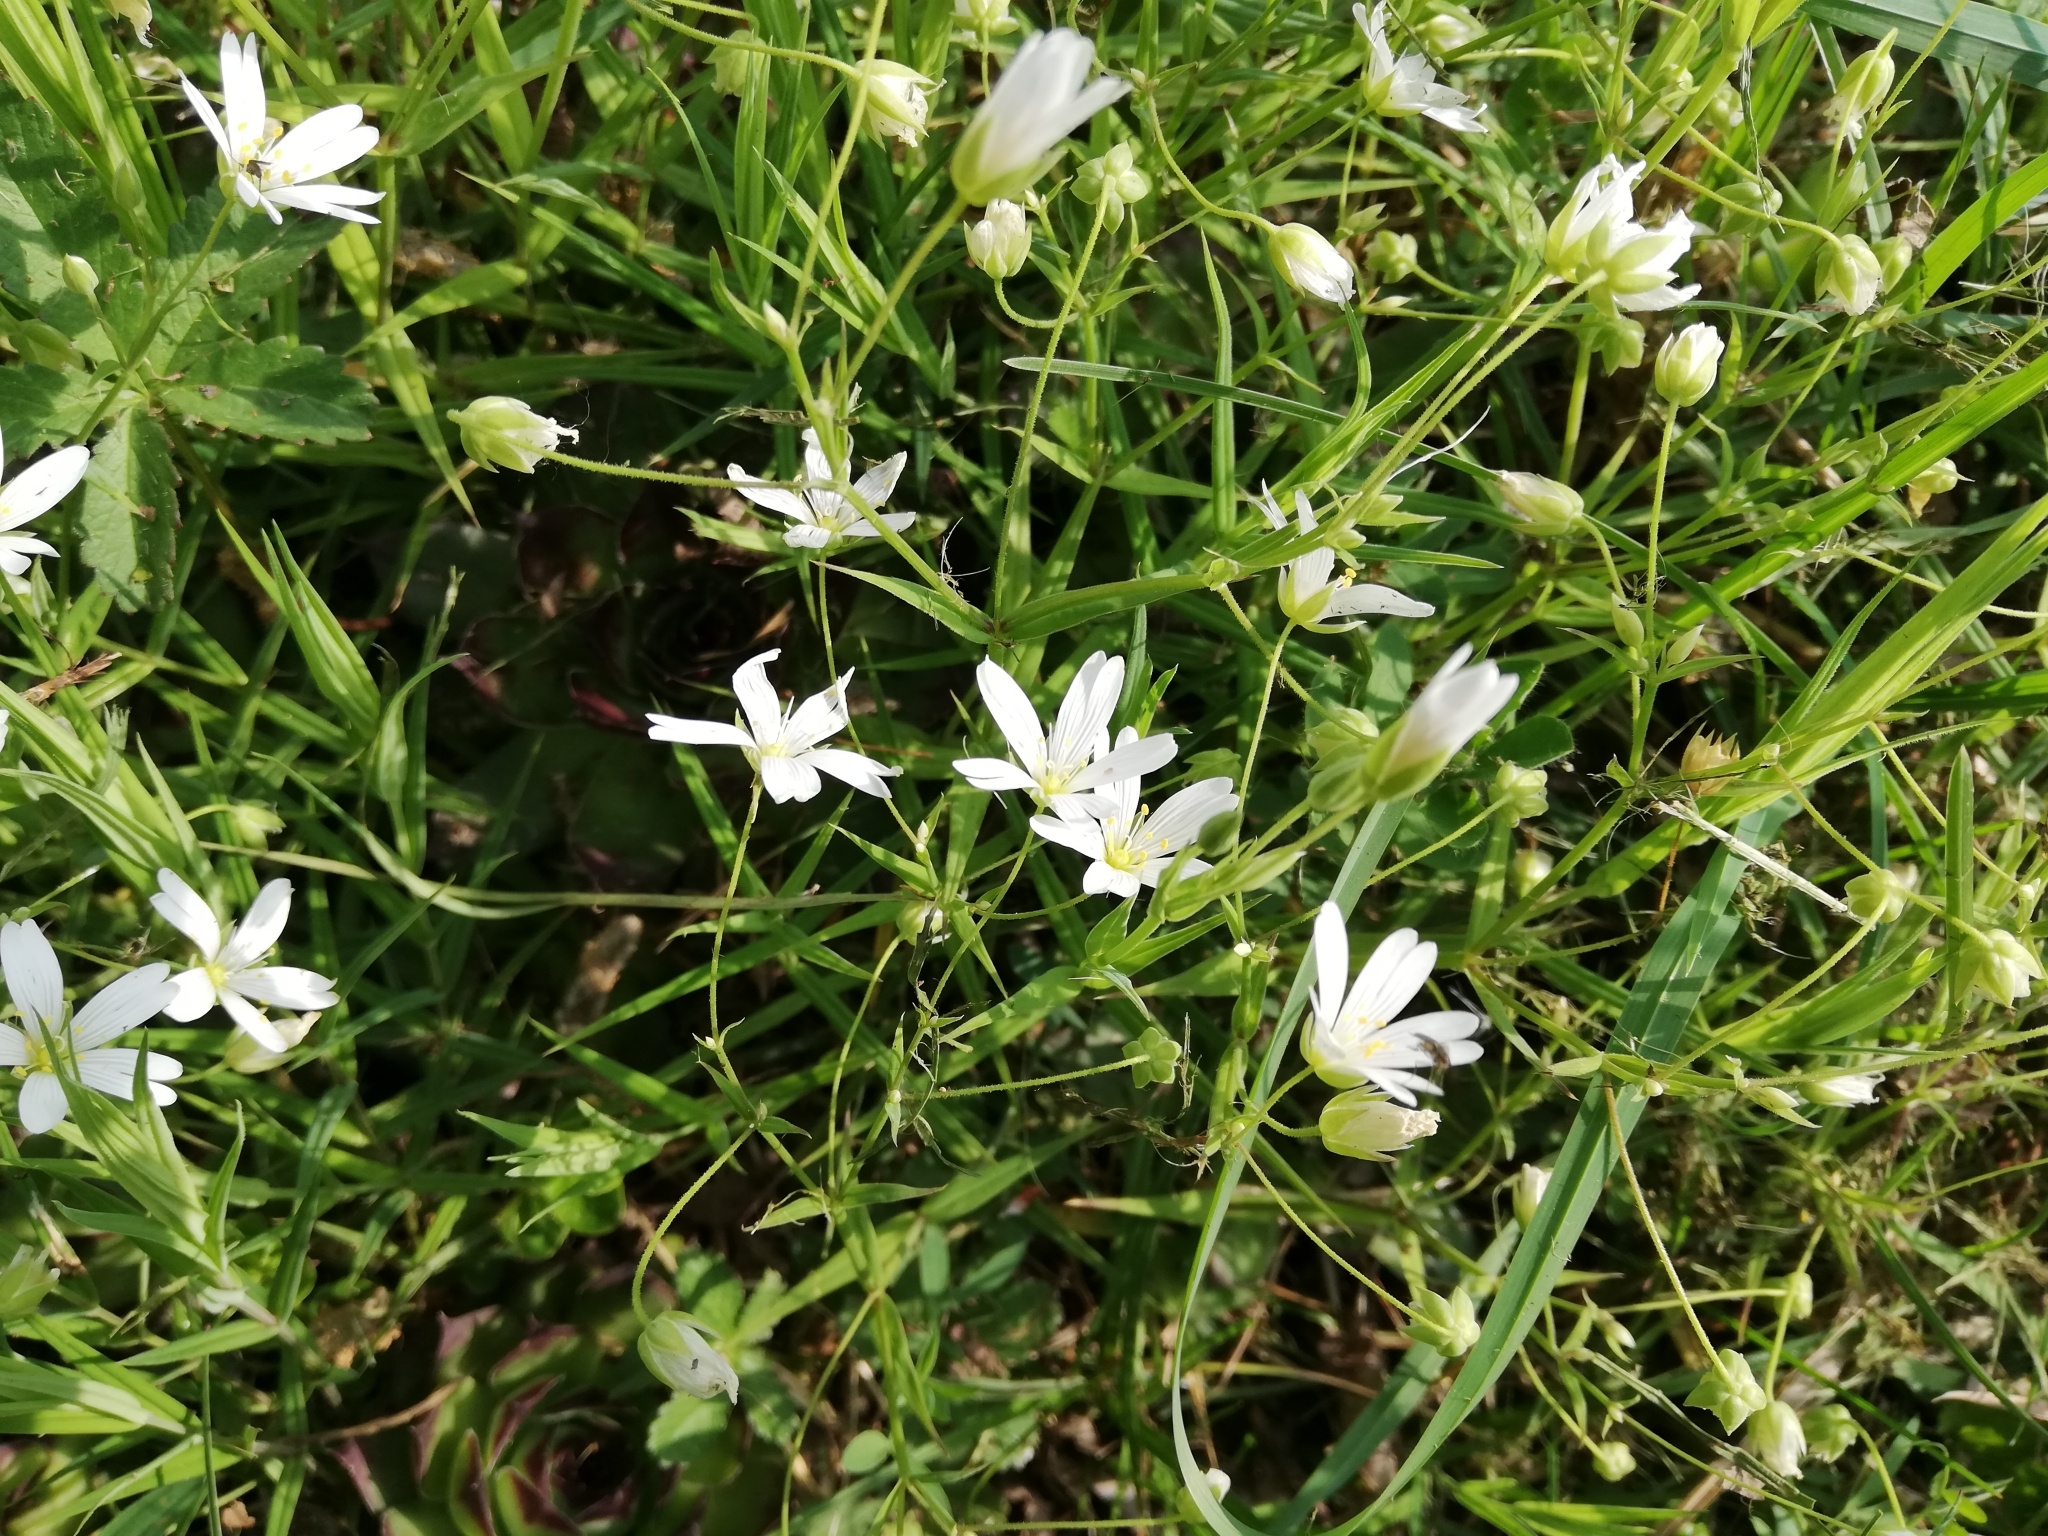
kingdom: Plantae
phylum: Tracheophyta
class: Magnoliopsida
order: Caryophyllales
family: Caryophyllaceae
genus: Rabelera
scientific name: Rabelera holostea
